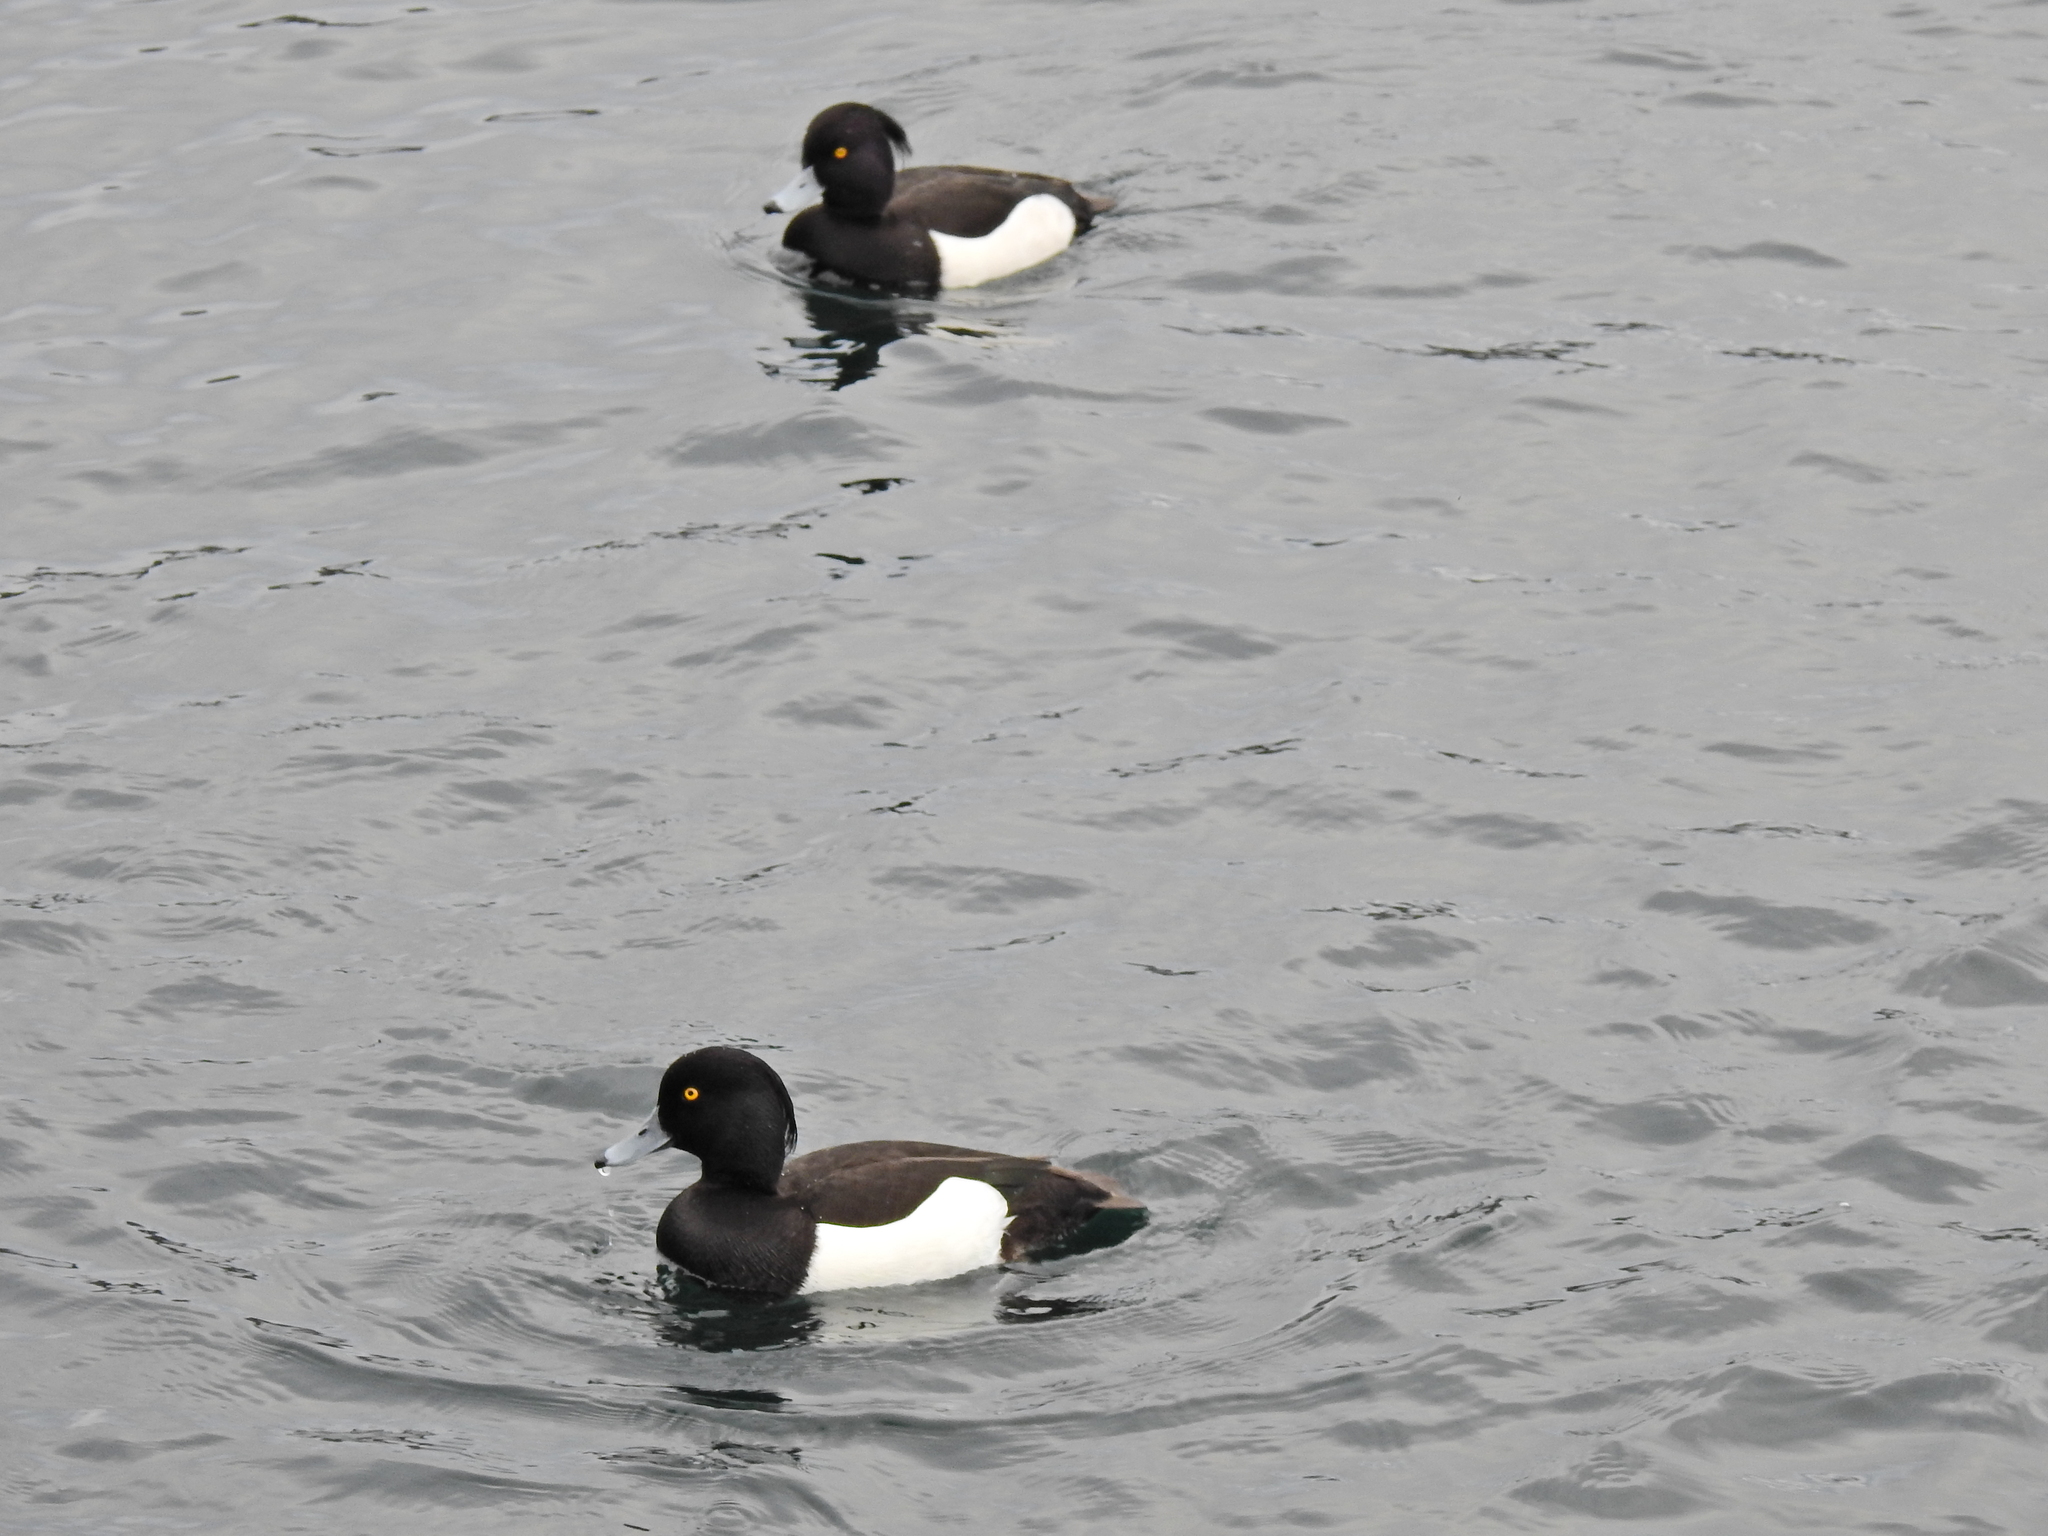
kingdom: Animalia
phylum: Chordata
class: Aves
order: Anseriformes
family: Anatidae
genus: Aythya
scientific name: Aythya fuligula
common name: Tufted duck
